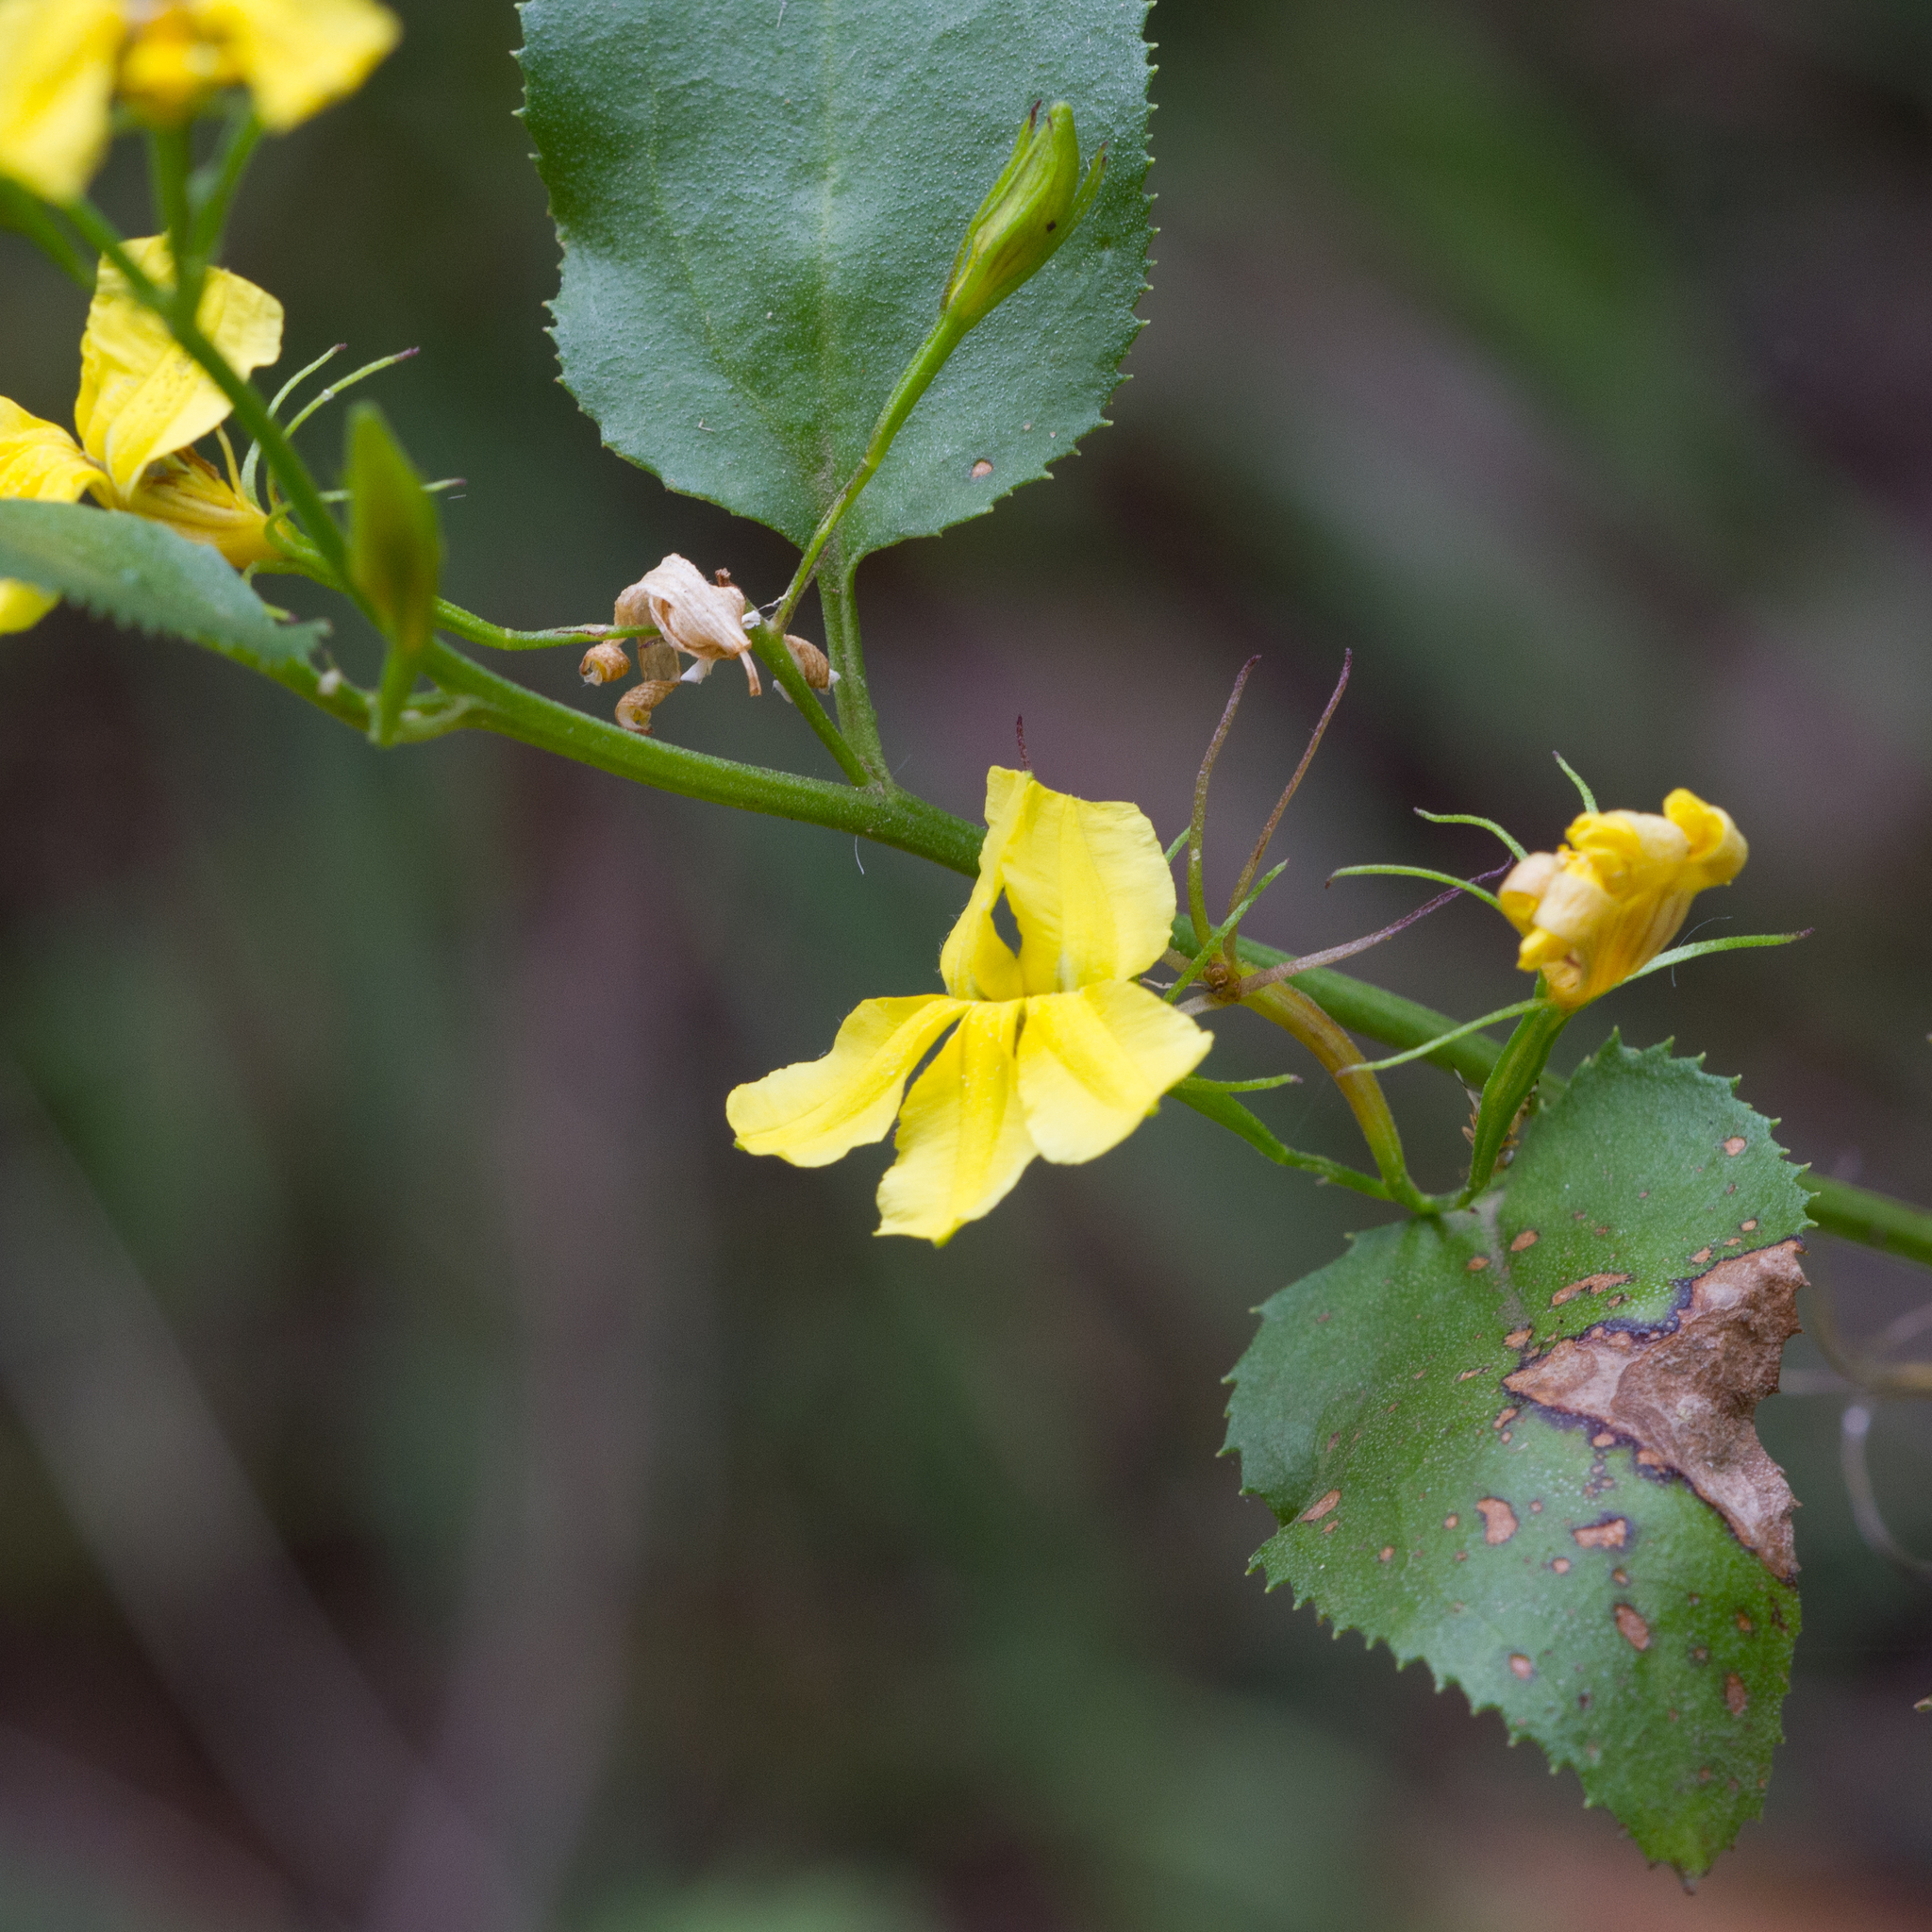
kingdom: Plantae
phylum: Tracheophyta
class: Magnoliopsida
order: Asterales
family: Goodeniaceae
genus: Goodenia
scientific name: Goodenia ovata
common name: Hop goodenia
